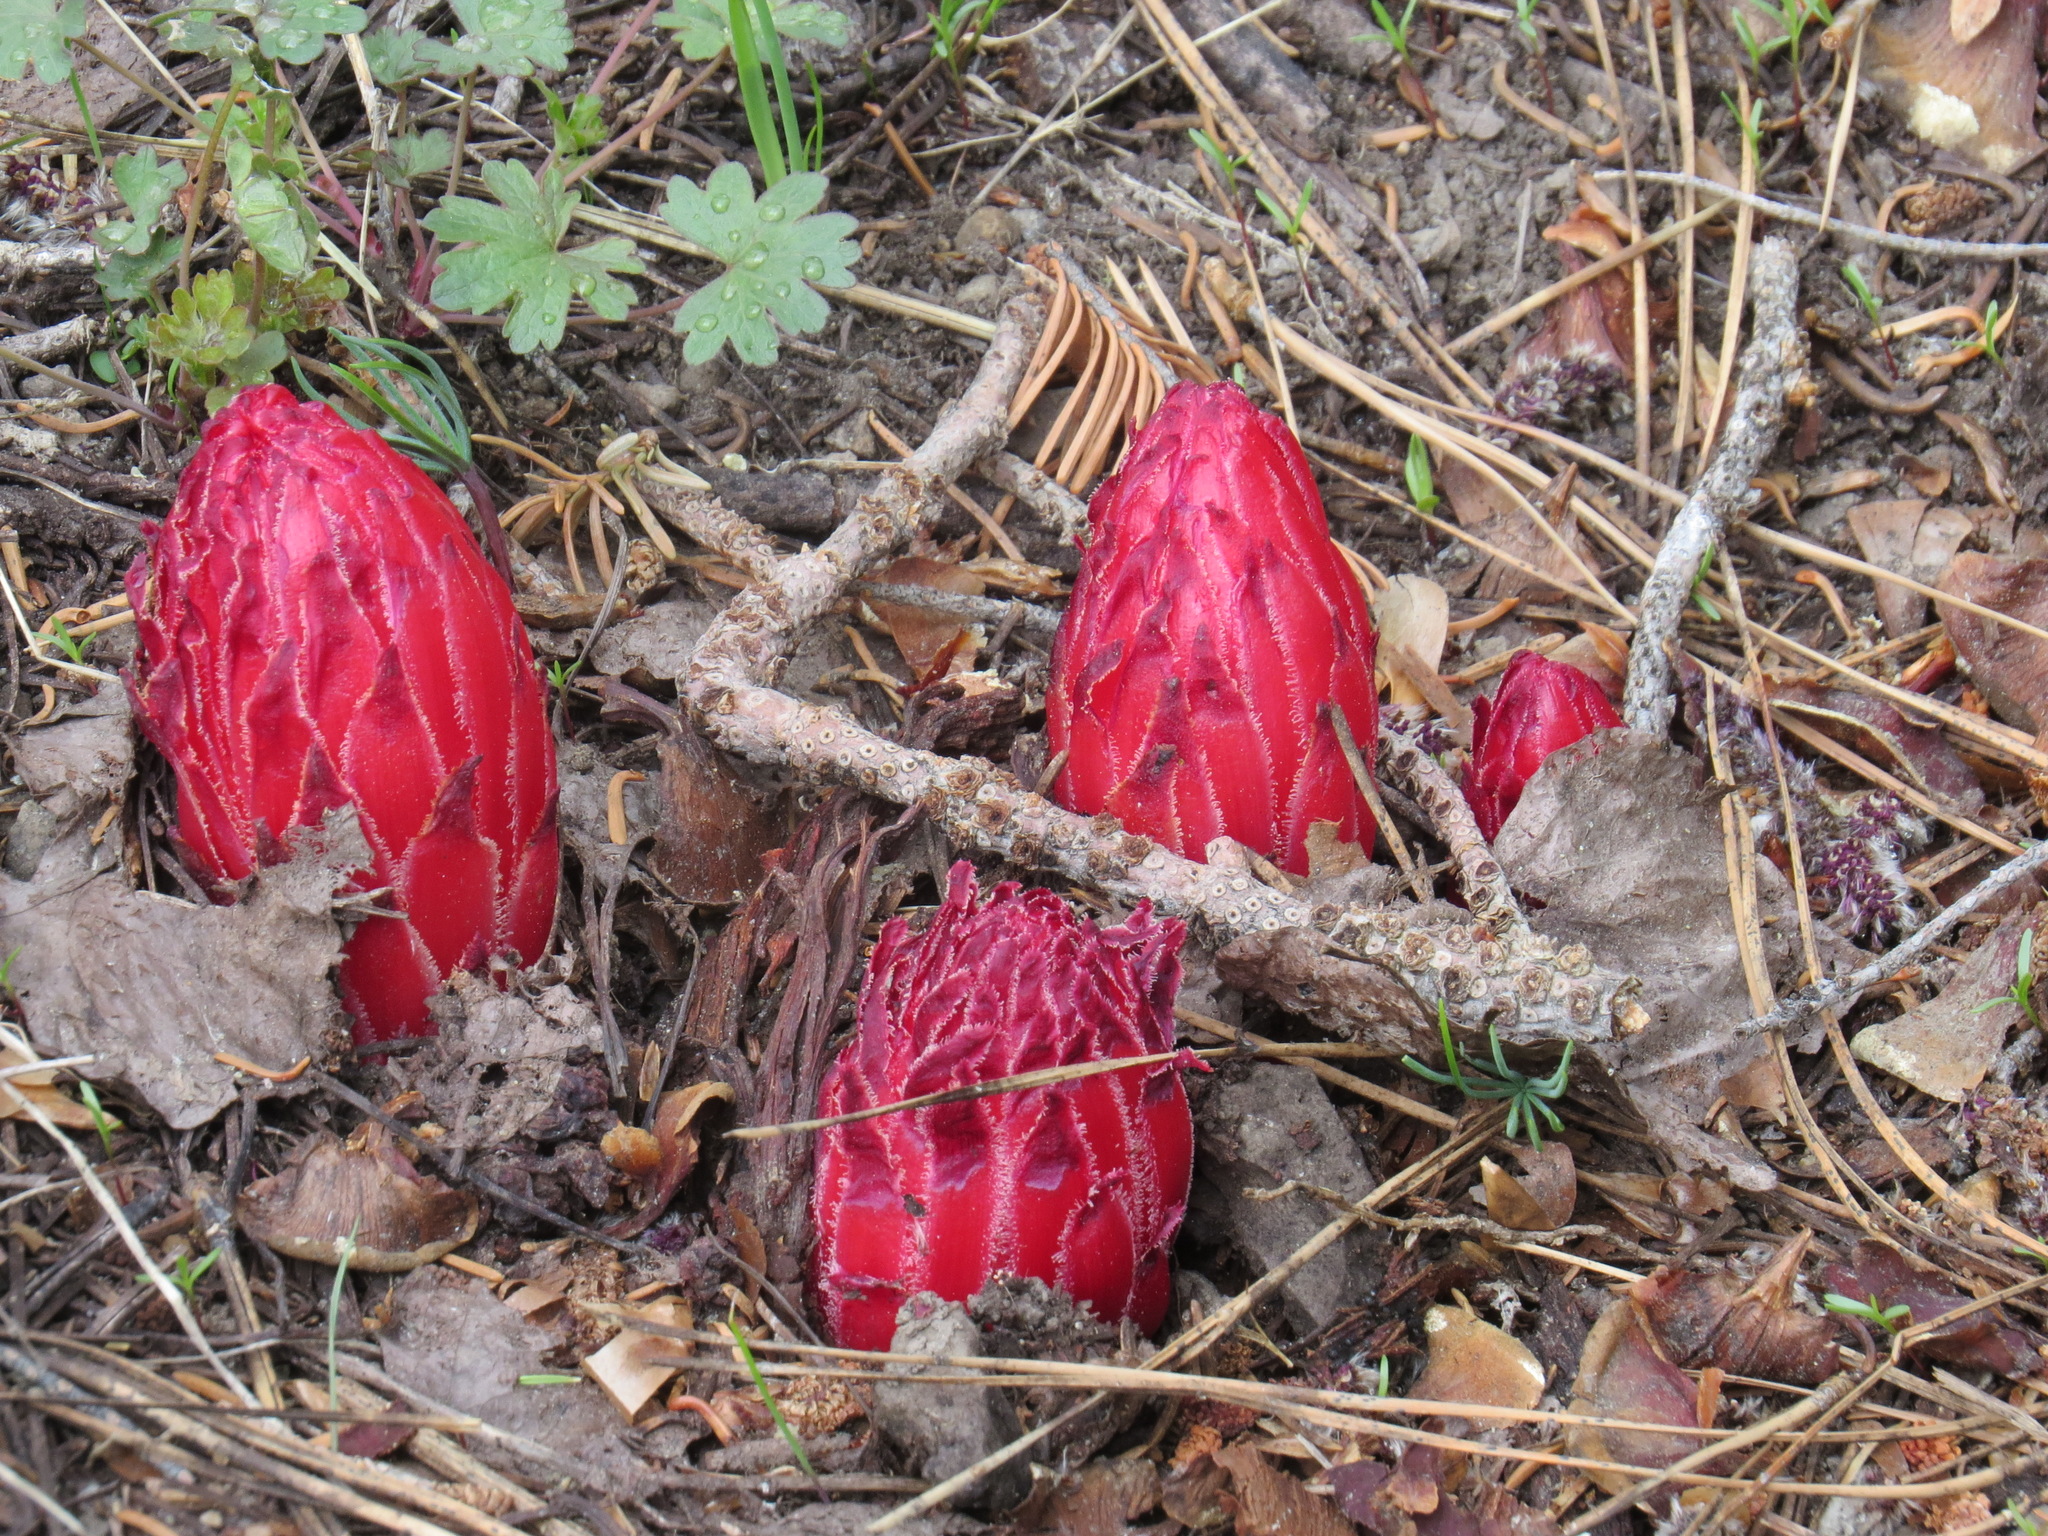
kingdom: Plantae
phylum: Tracheophyta
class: Magnoliopsida
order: Ericales
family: Ericaceae
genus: Sarcodes
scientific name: Sarcodes sanguinea
